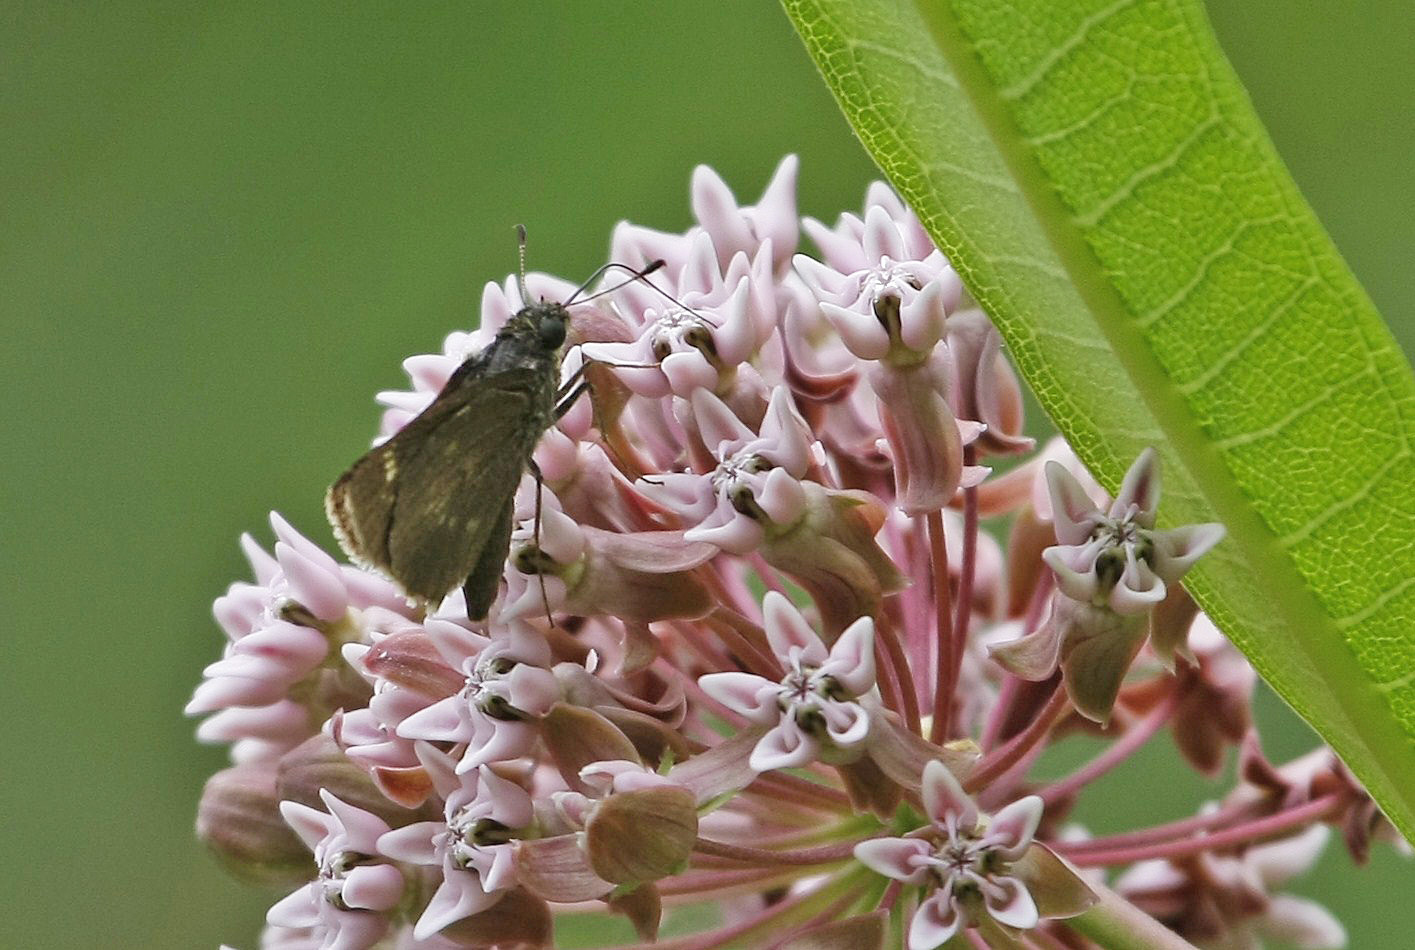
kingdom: Animalia
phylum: Arthropoda
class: Insecta
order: Lepidoptera
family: Hesperiidae
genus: Vernia
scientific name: Vernia verna
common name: Little glassywing
